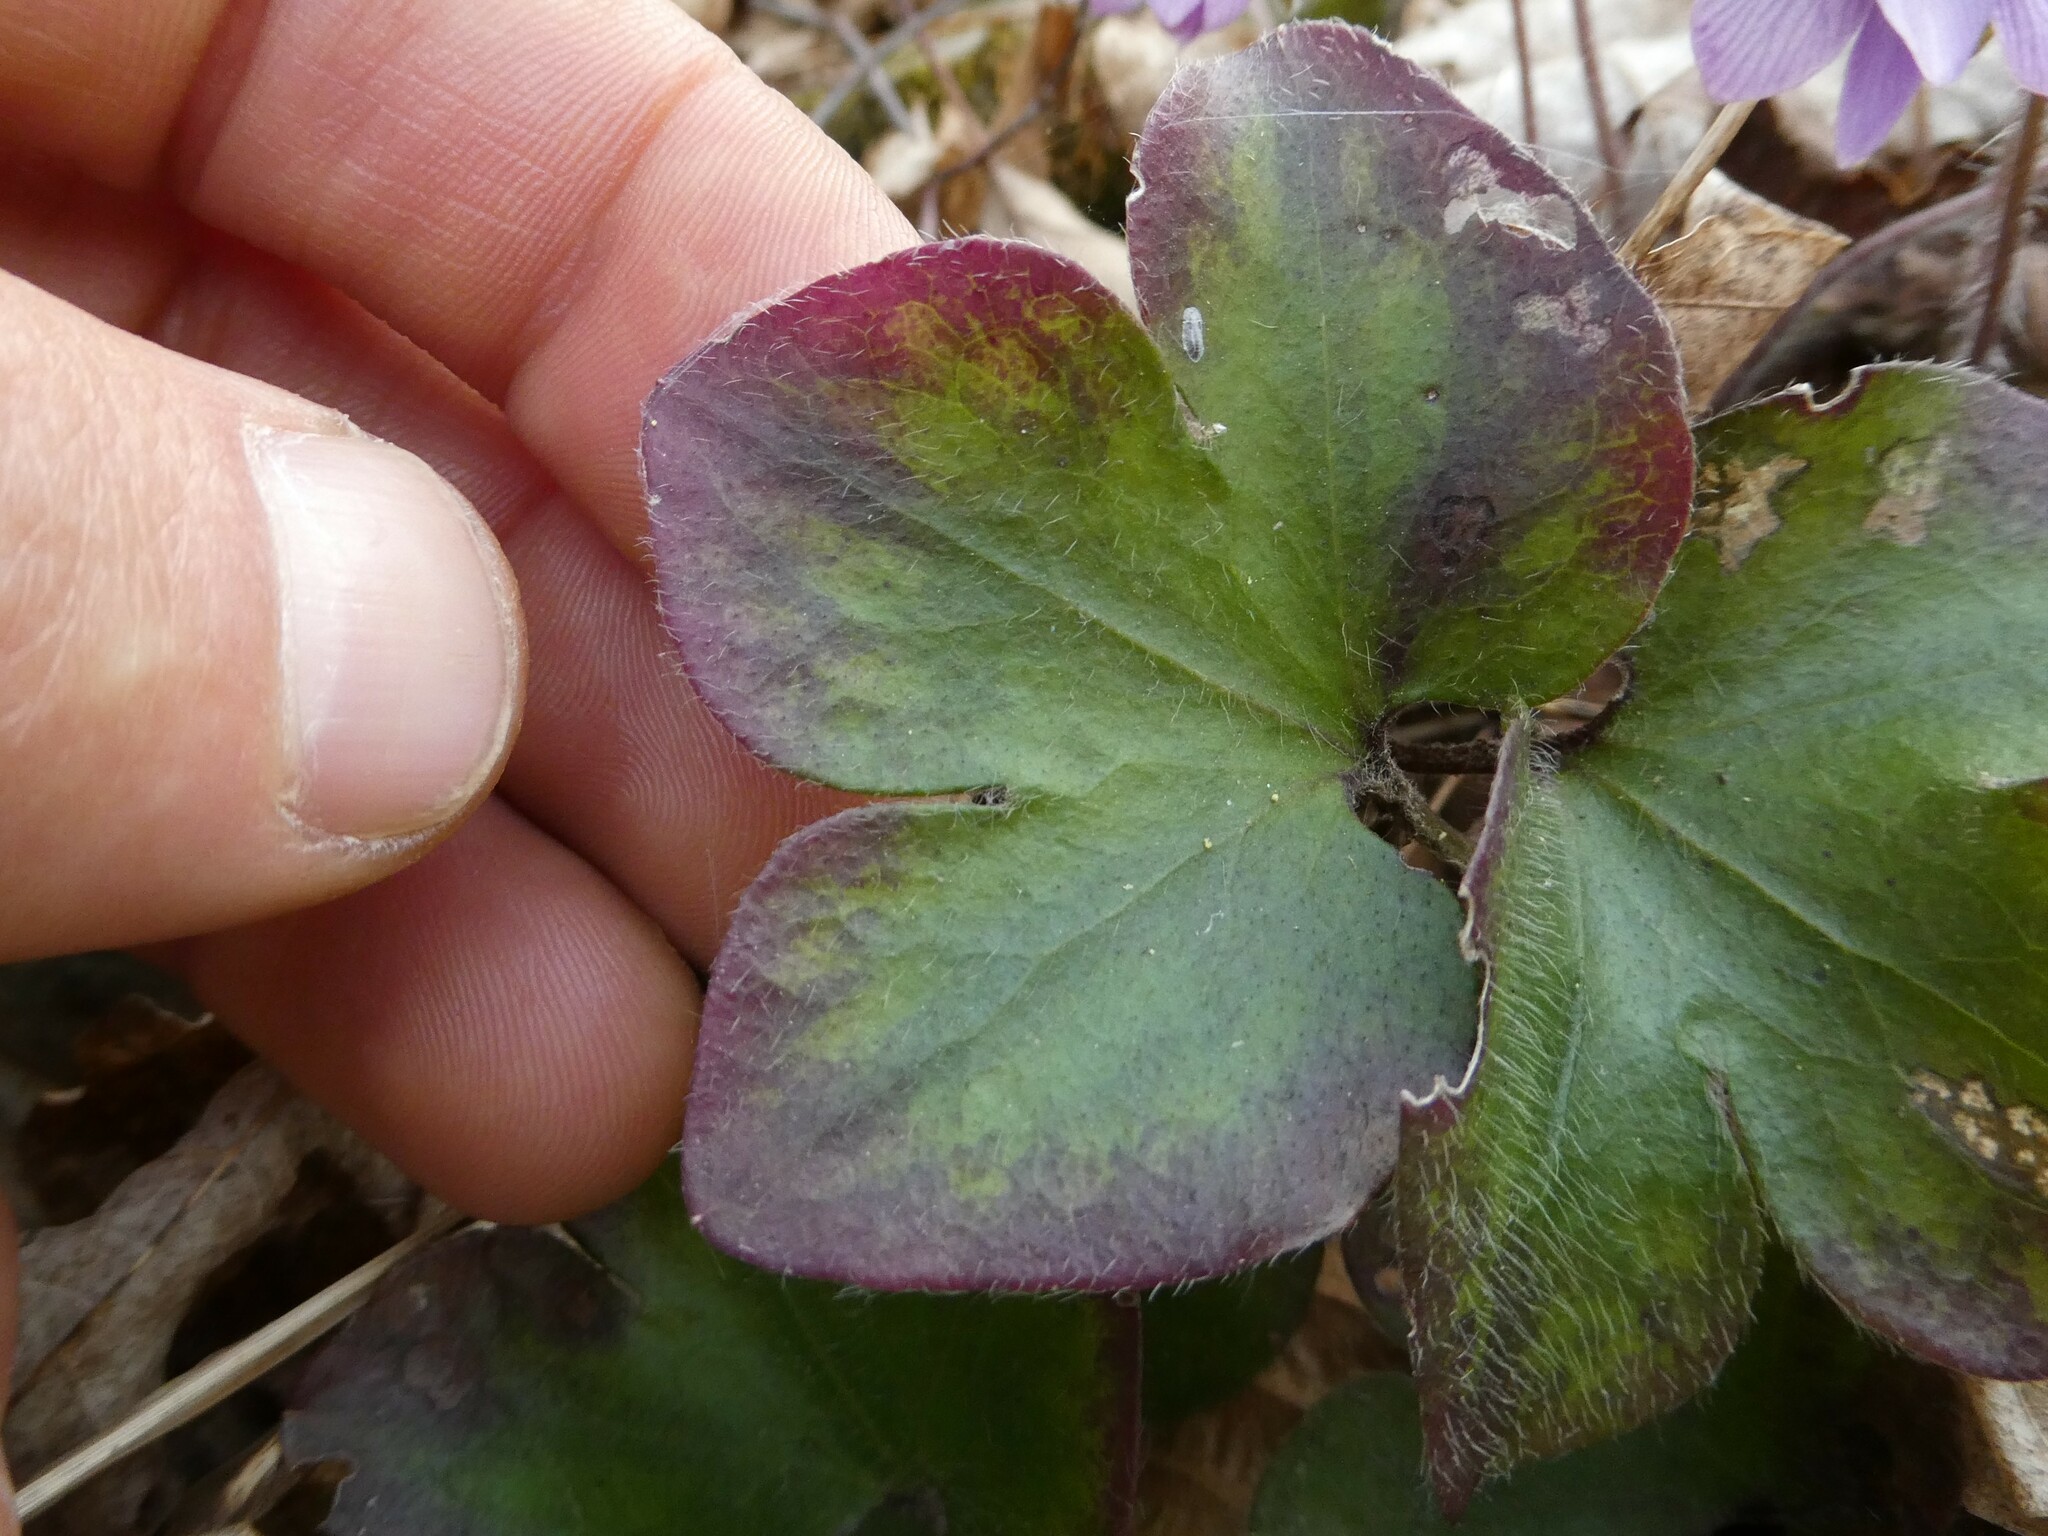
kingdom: Plantae
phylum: Tracheophyta
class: Magnoliopsida
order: Ranunculales
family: Ranunculaceae
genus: Hepatica
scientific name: Hepatica americana
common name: American hepatica
